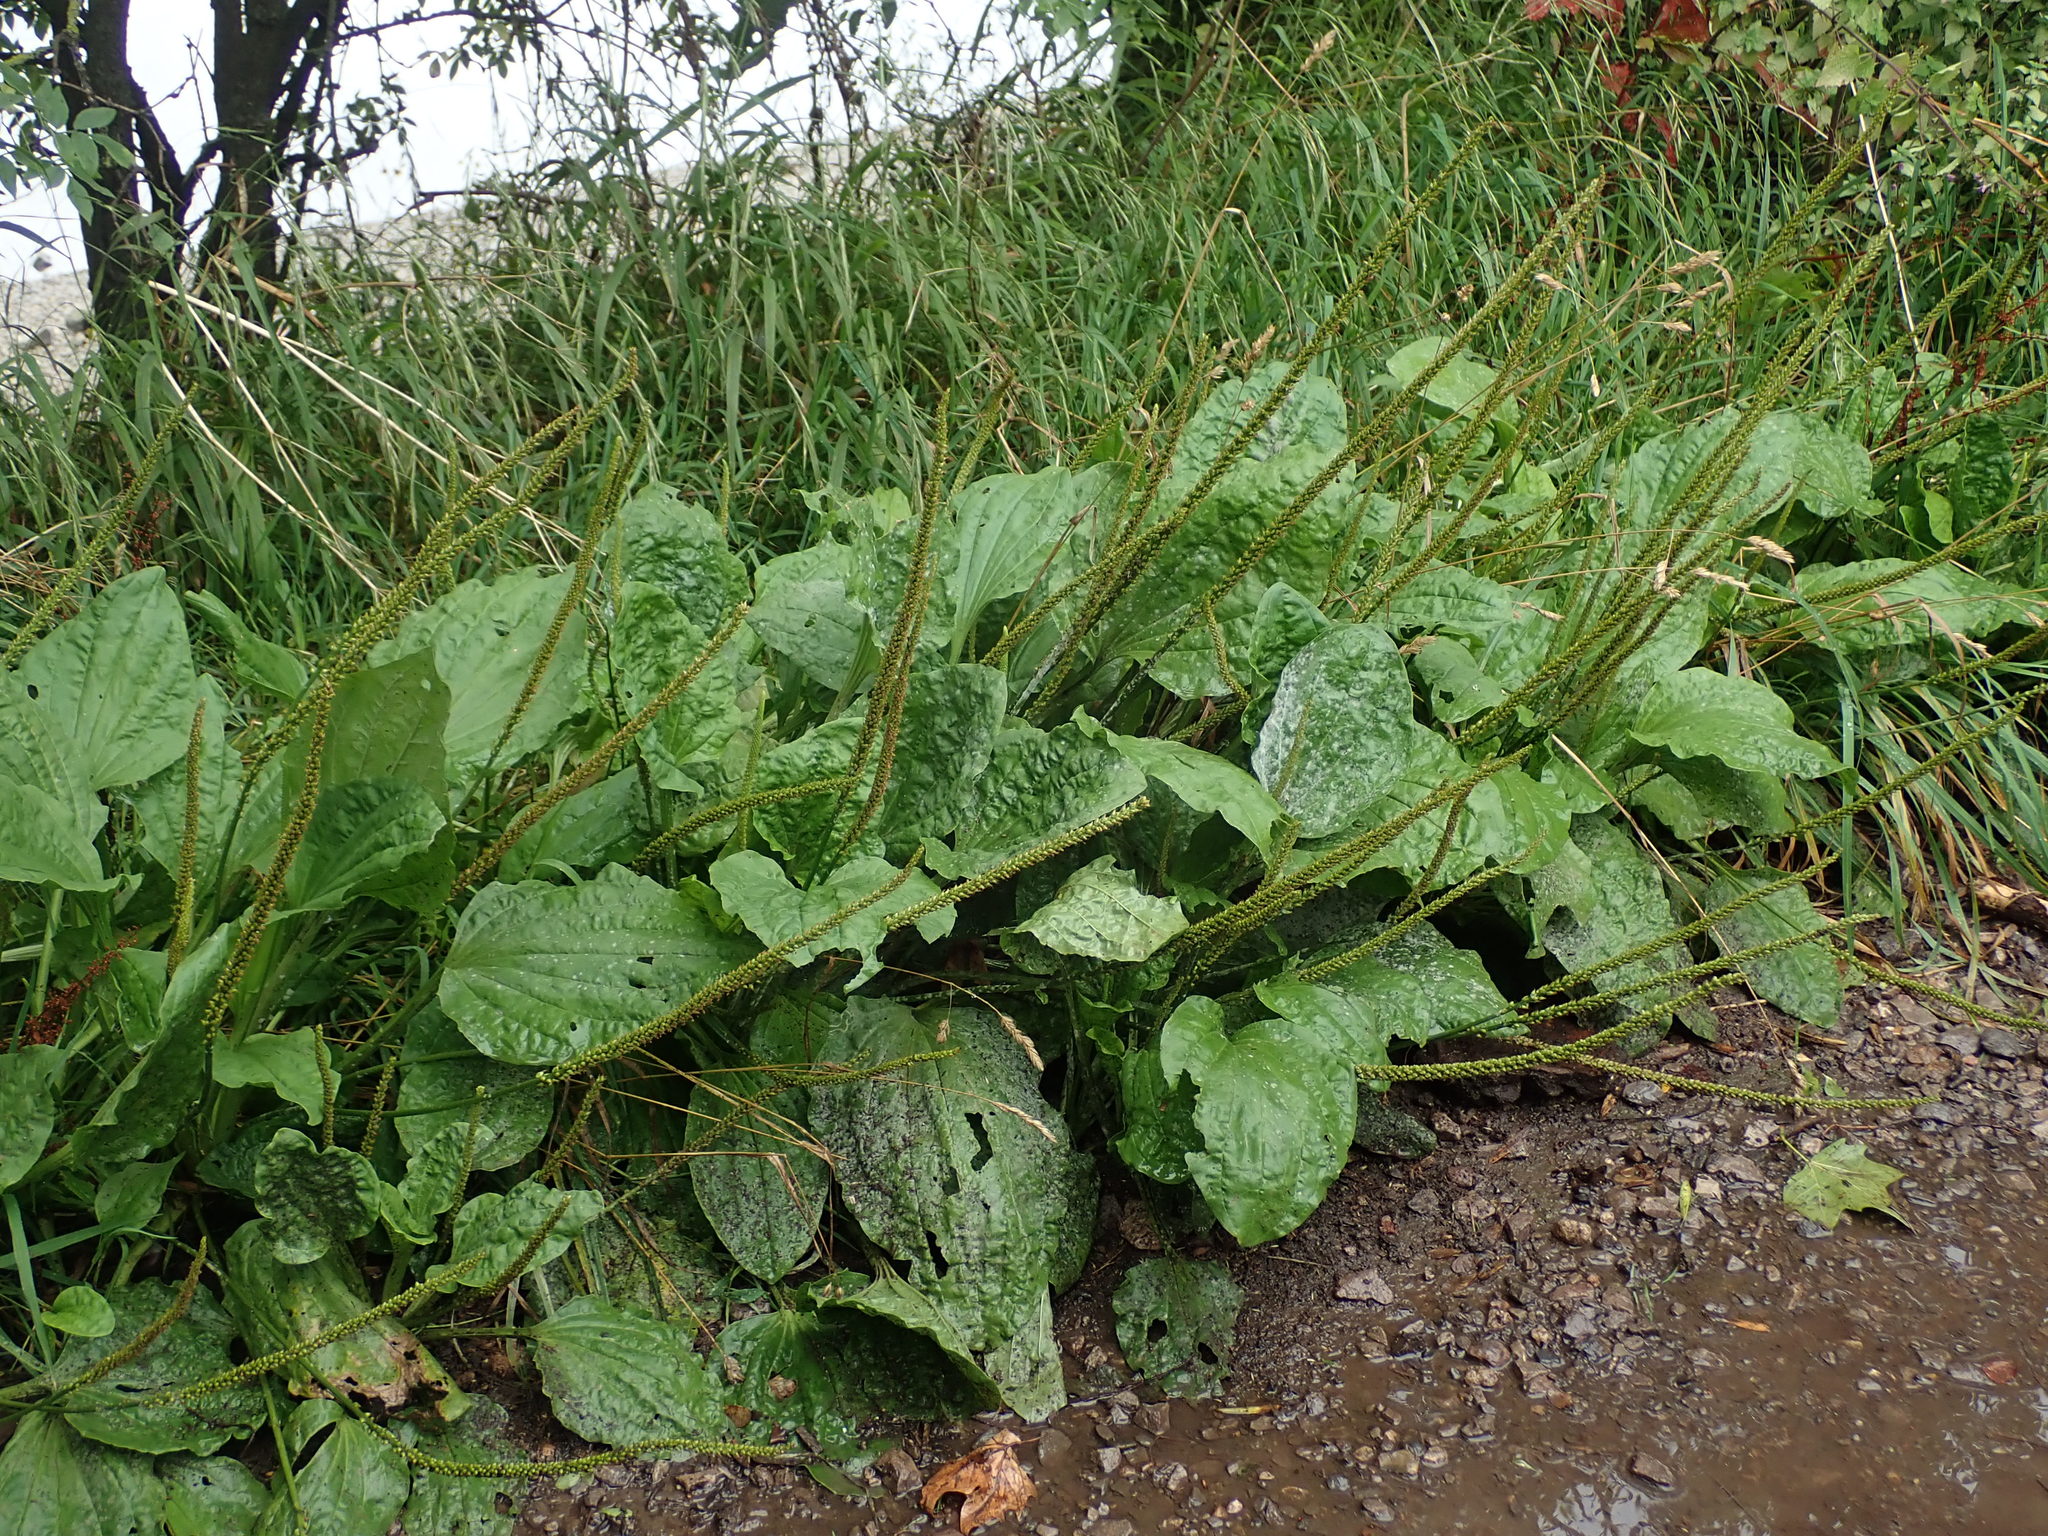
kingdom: Plantae
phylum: Tracheophyta
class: Magnoliopsida
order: Lamiales
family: Plantaginaceae
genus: Plantago
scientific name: Plantago major
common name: Common plantain
